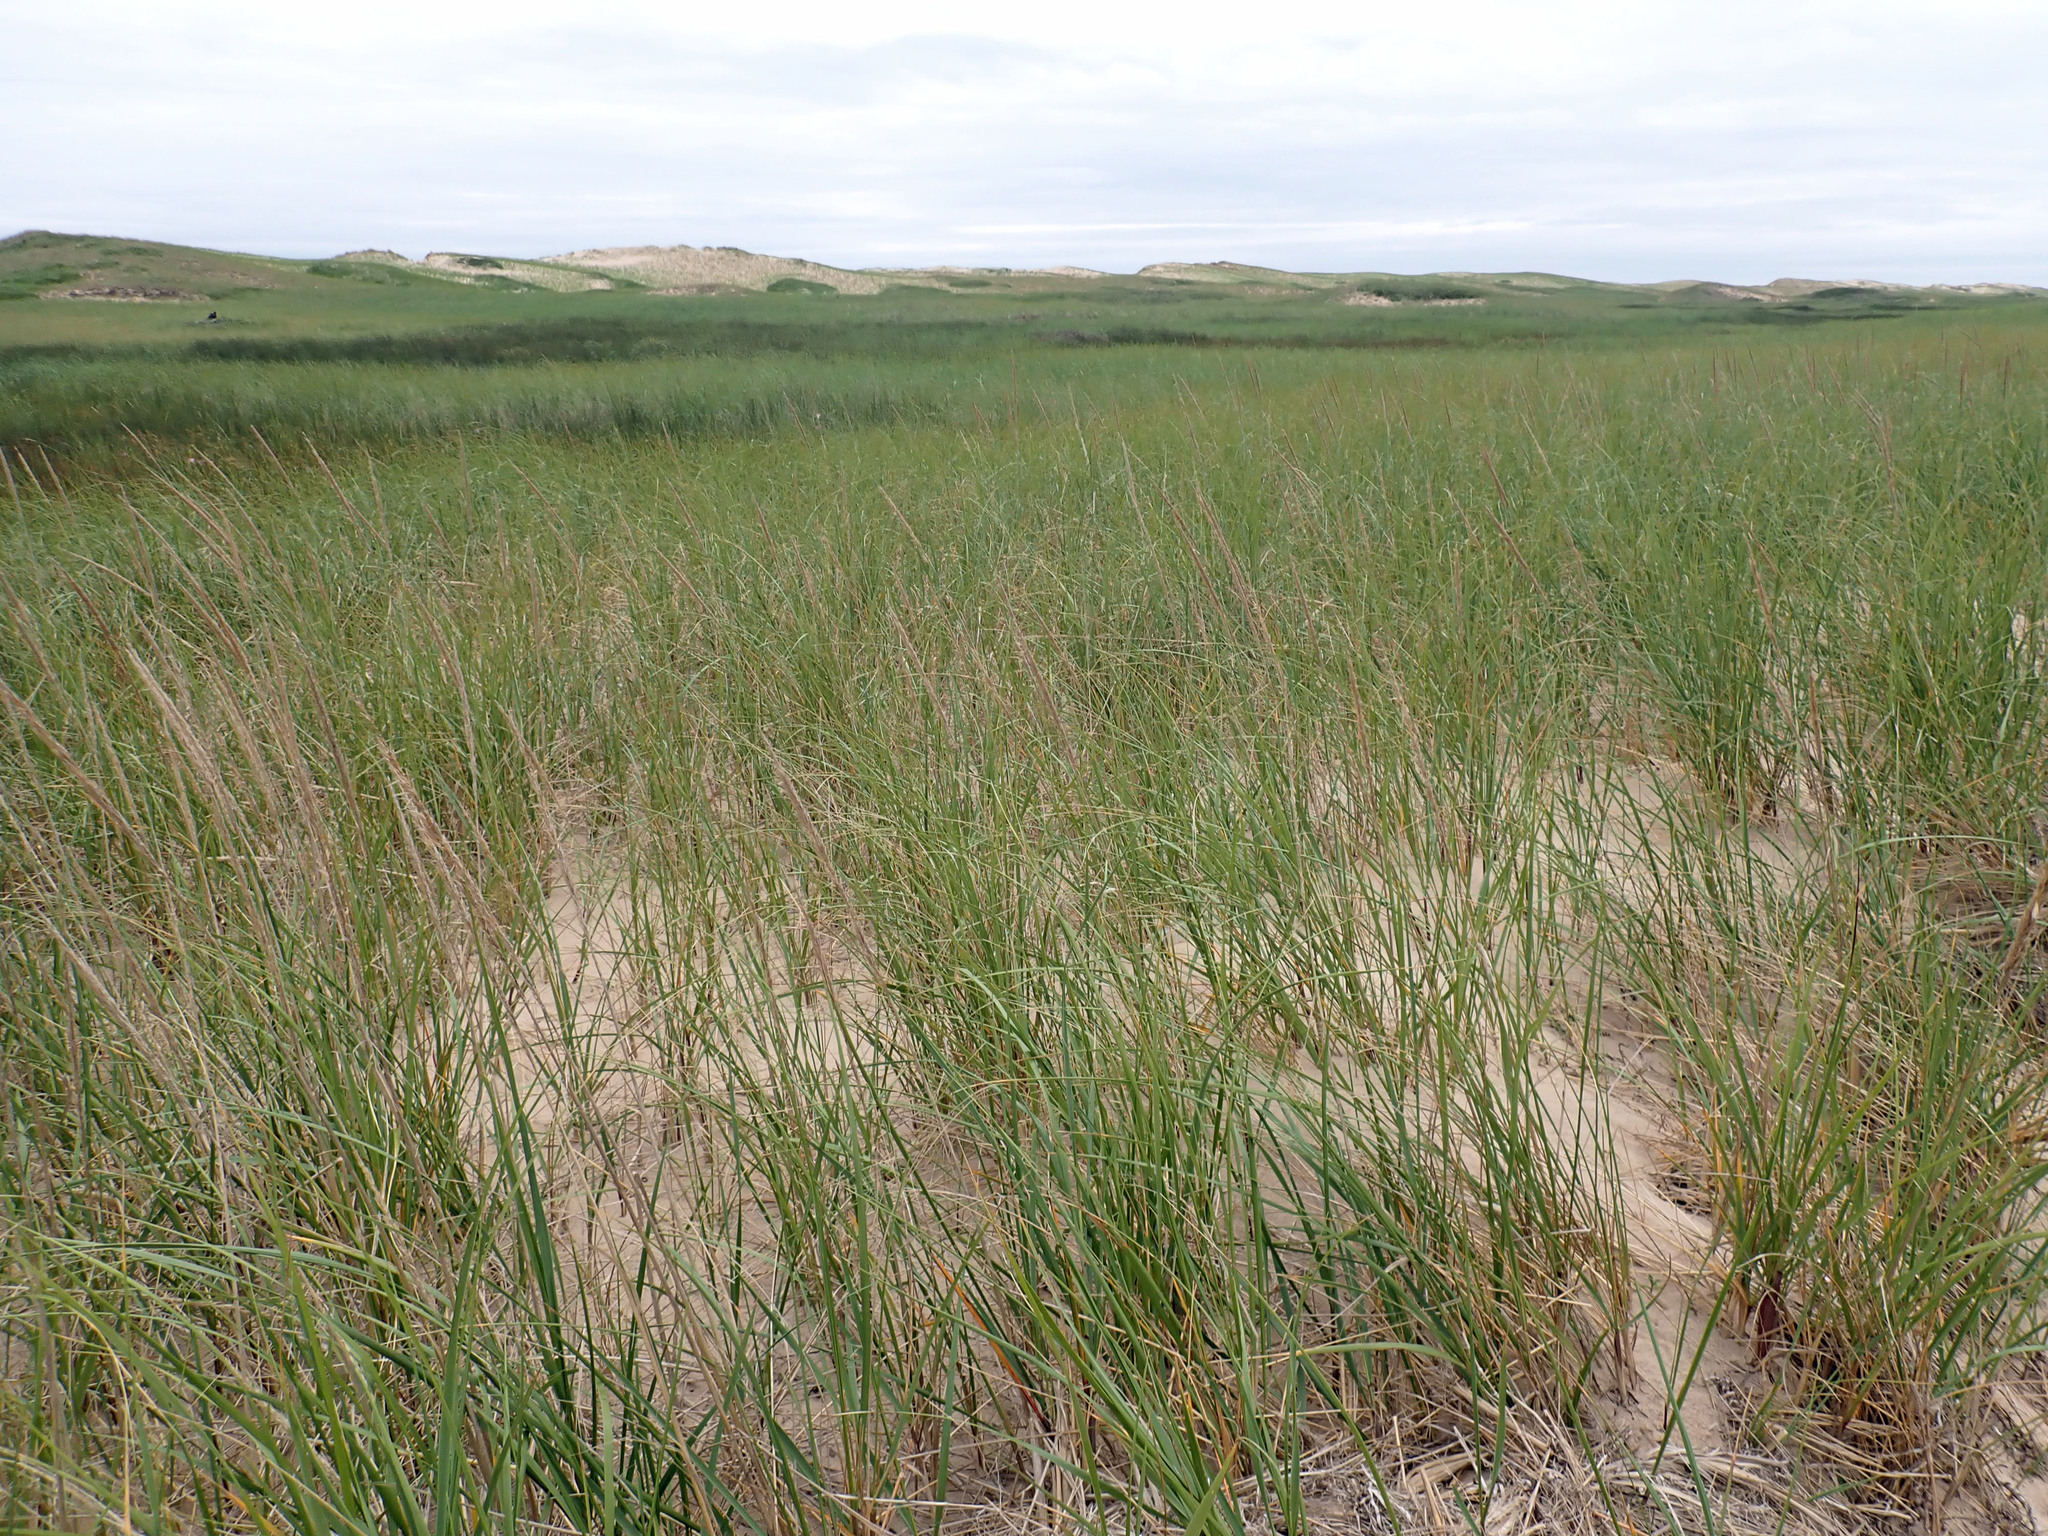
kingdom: Plantae
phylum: Tracheophyta
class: Liliopsida
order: Poales
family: Poaceae
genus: Calamagrostis
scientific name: Calamagrostis breviligulata
